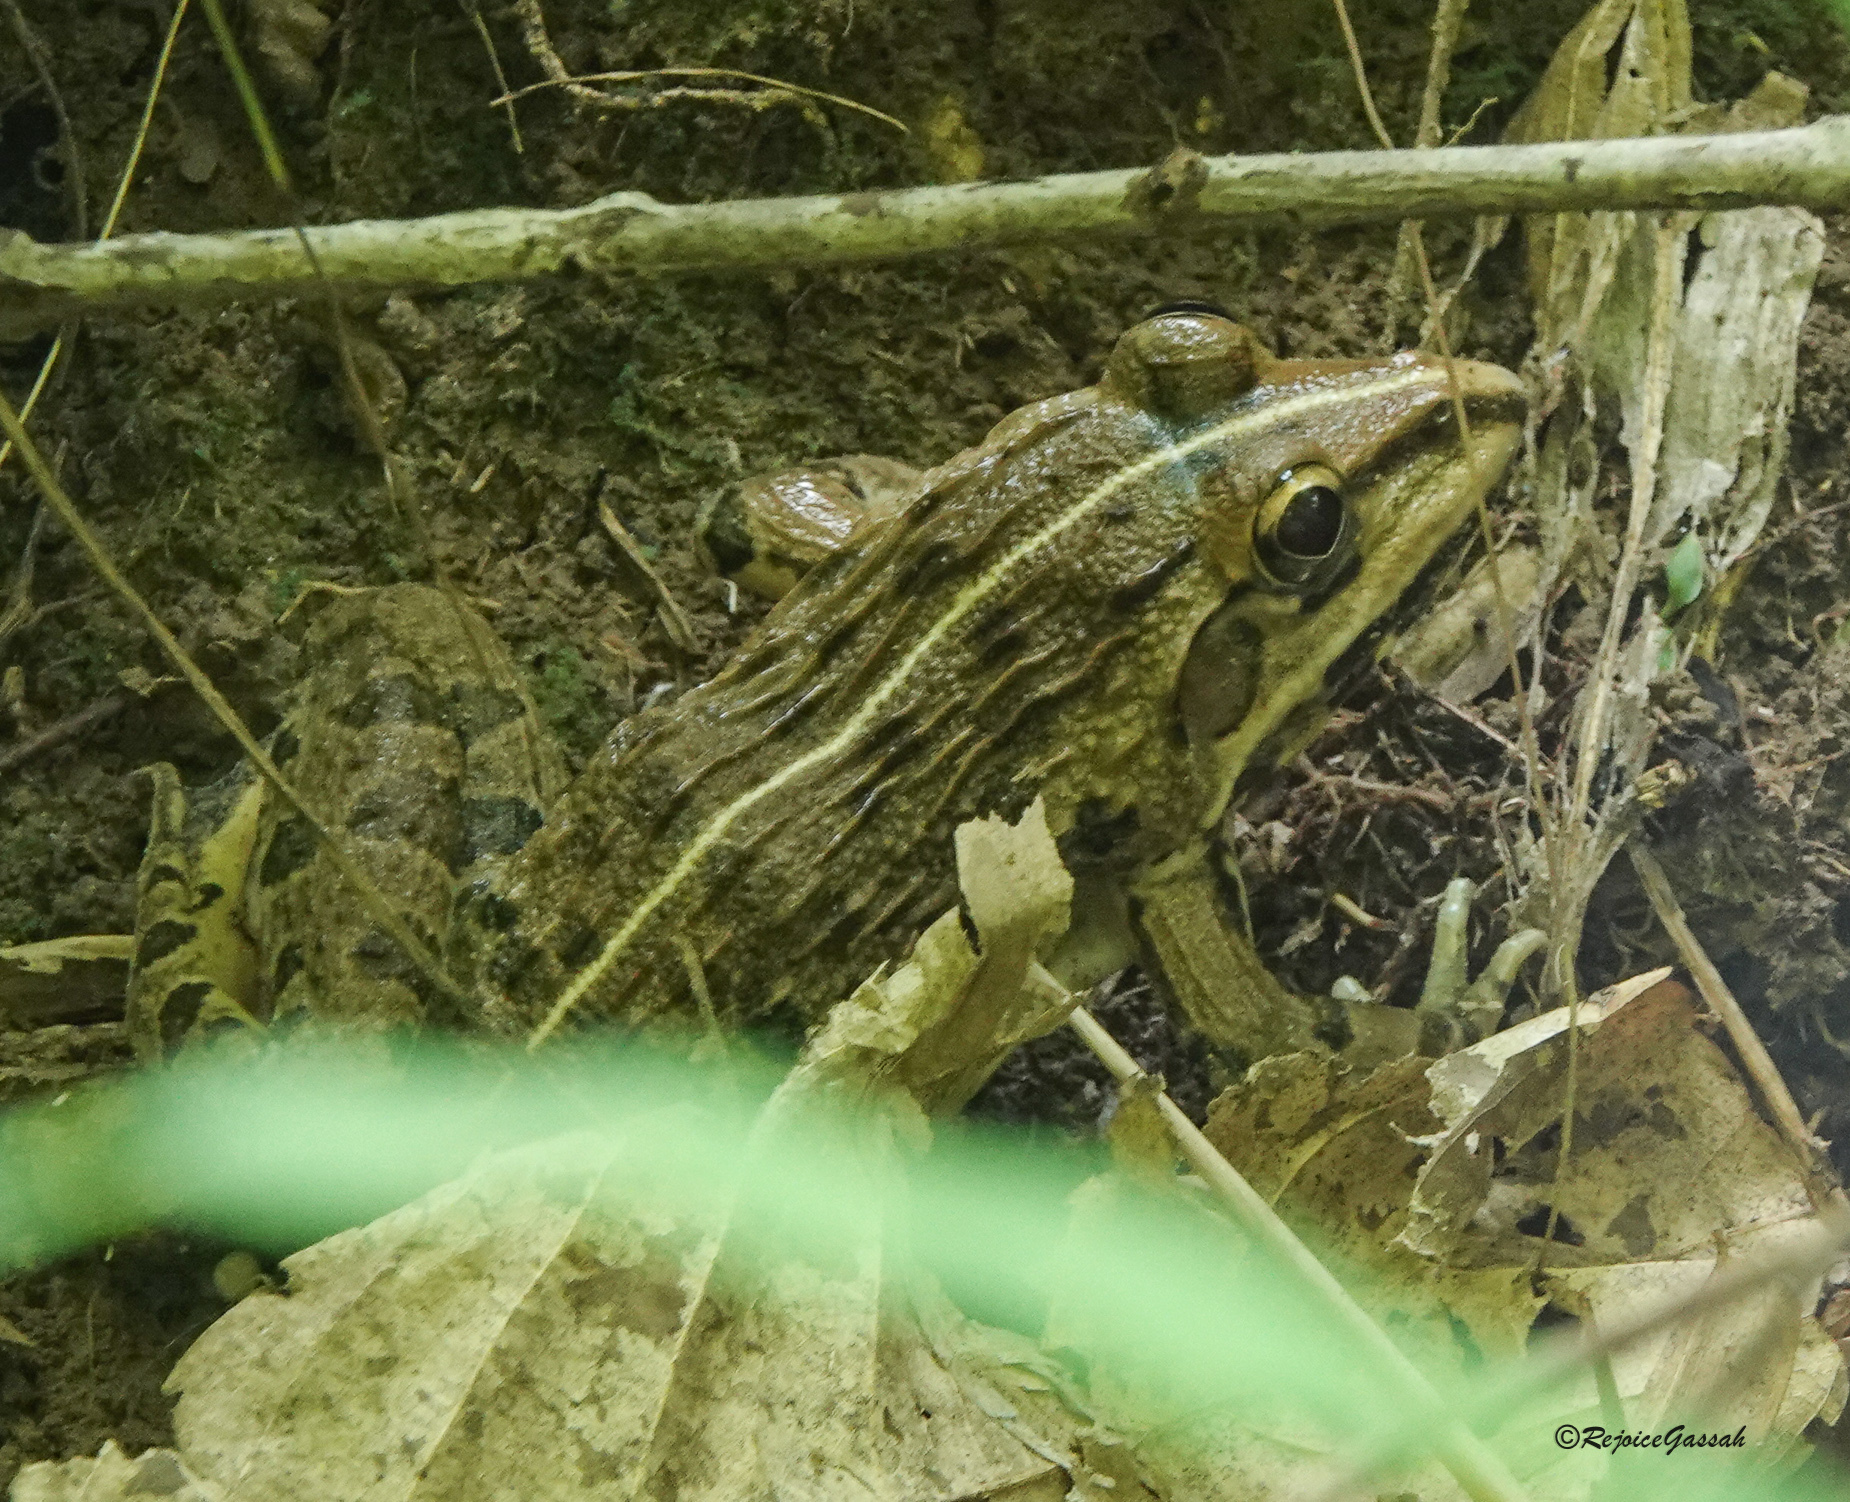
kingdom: Animalia
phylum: Chordata
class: Amphibia
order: Anura
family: Dicroglossidae
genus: Hoplobatrachus
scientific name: Hoplobatrachus tigerinus
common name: Indian bullfrog
